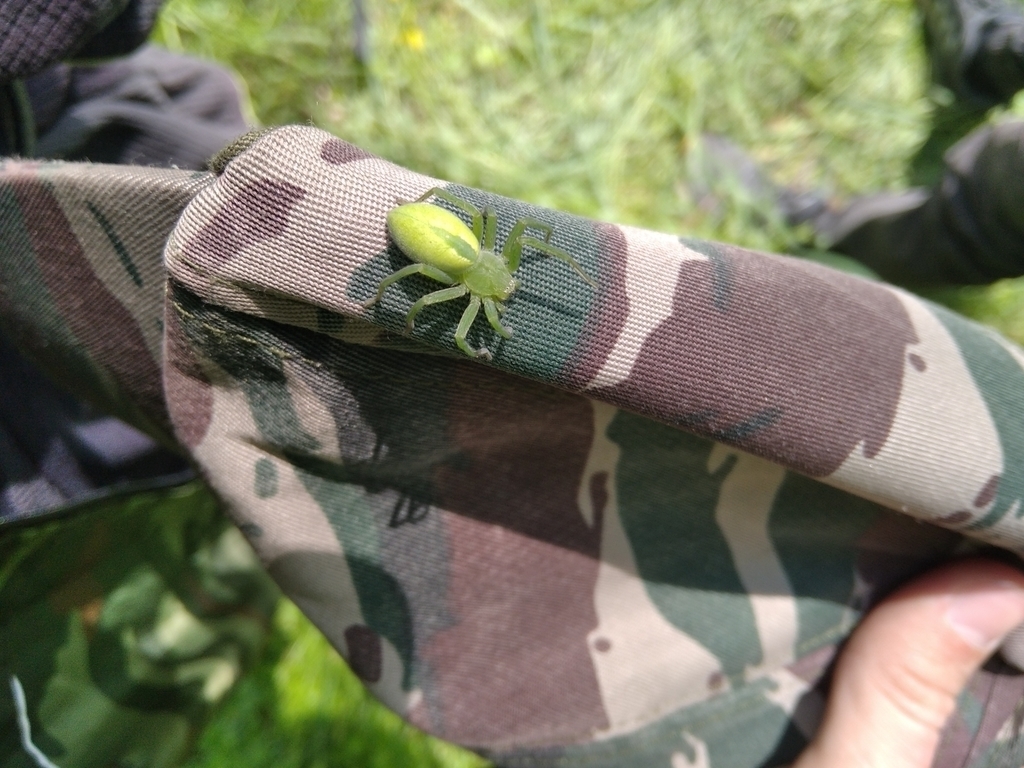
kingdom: Animalia
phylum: Arthropoda
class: Arachnida
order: Araneae
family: Sparassidae
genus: Micrommata
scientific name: Micrommata virescens
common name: Green spider
